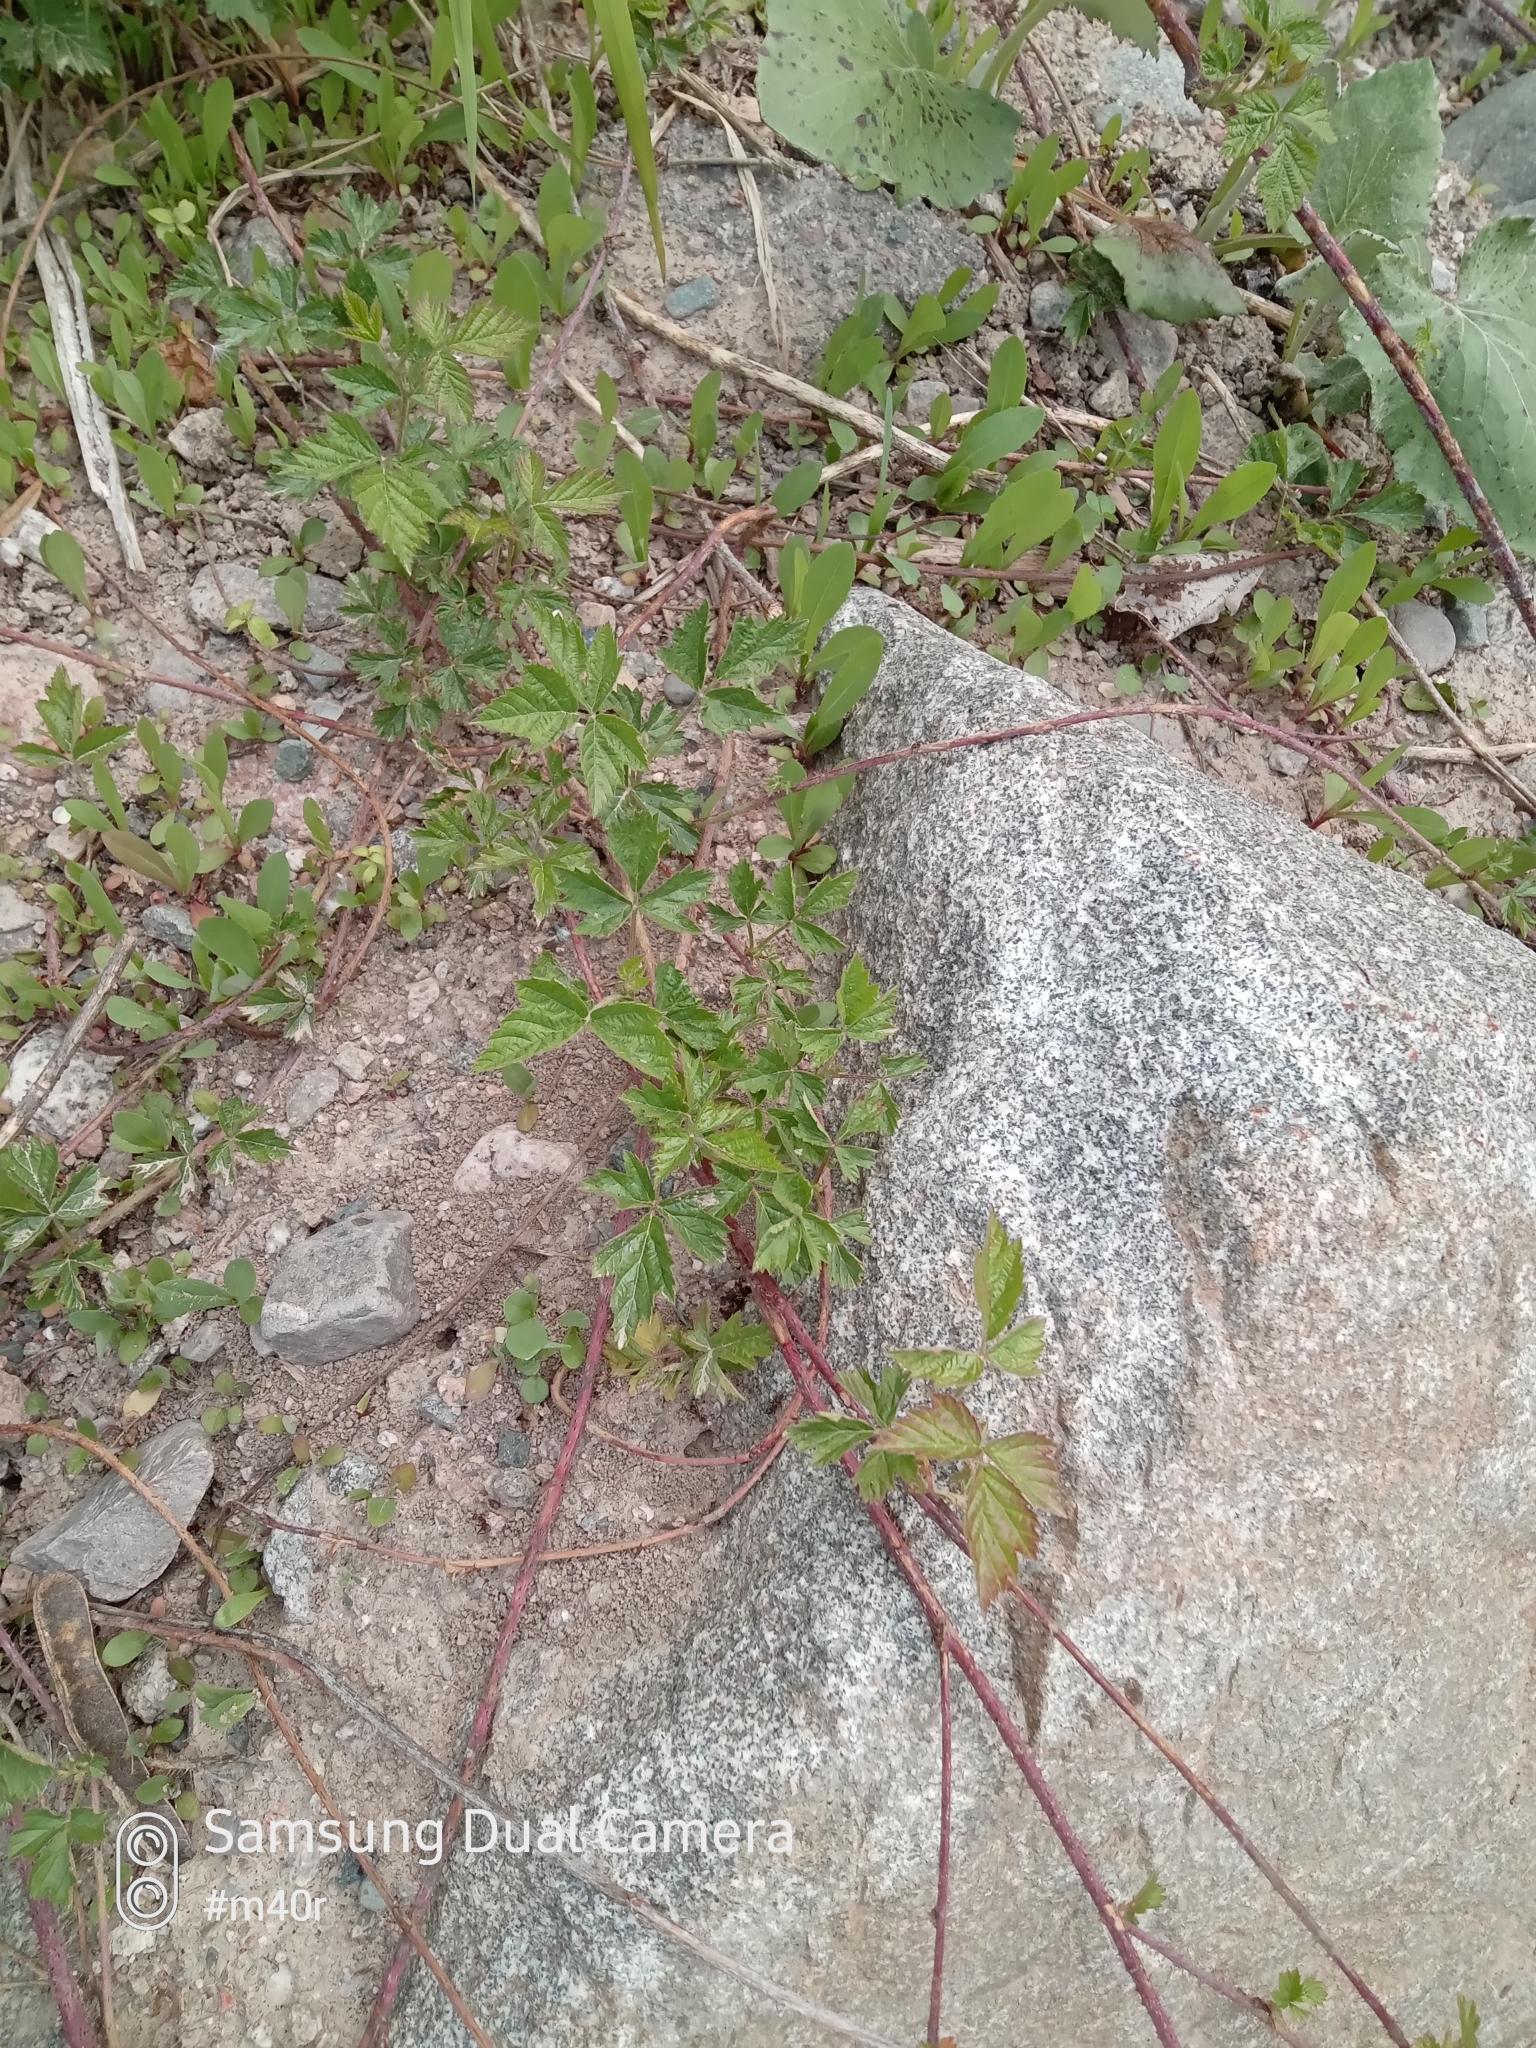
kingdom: Plantae
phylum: Tracheophyta
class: Magnoliopsida
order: Rosales
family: Rosaceae
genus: Rubus
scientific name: Rubus caesius
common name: Dewberry
